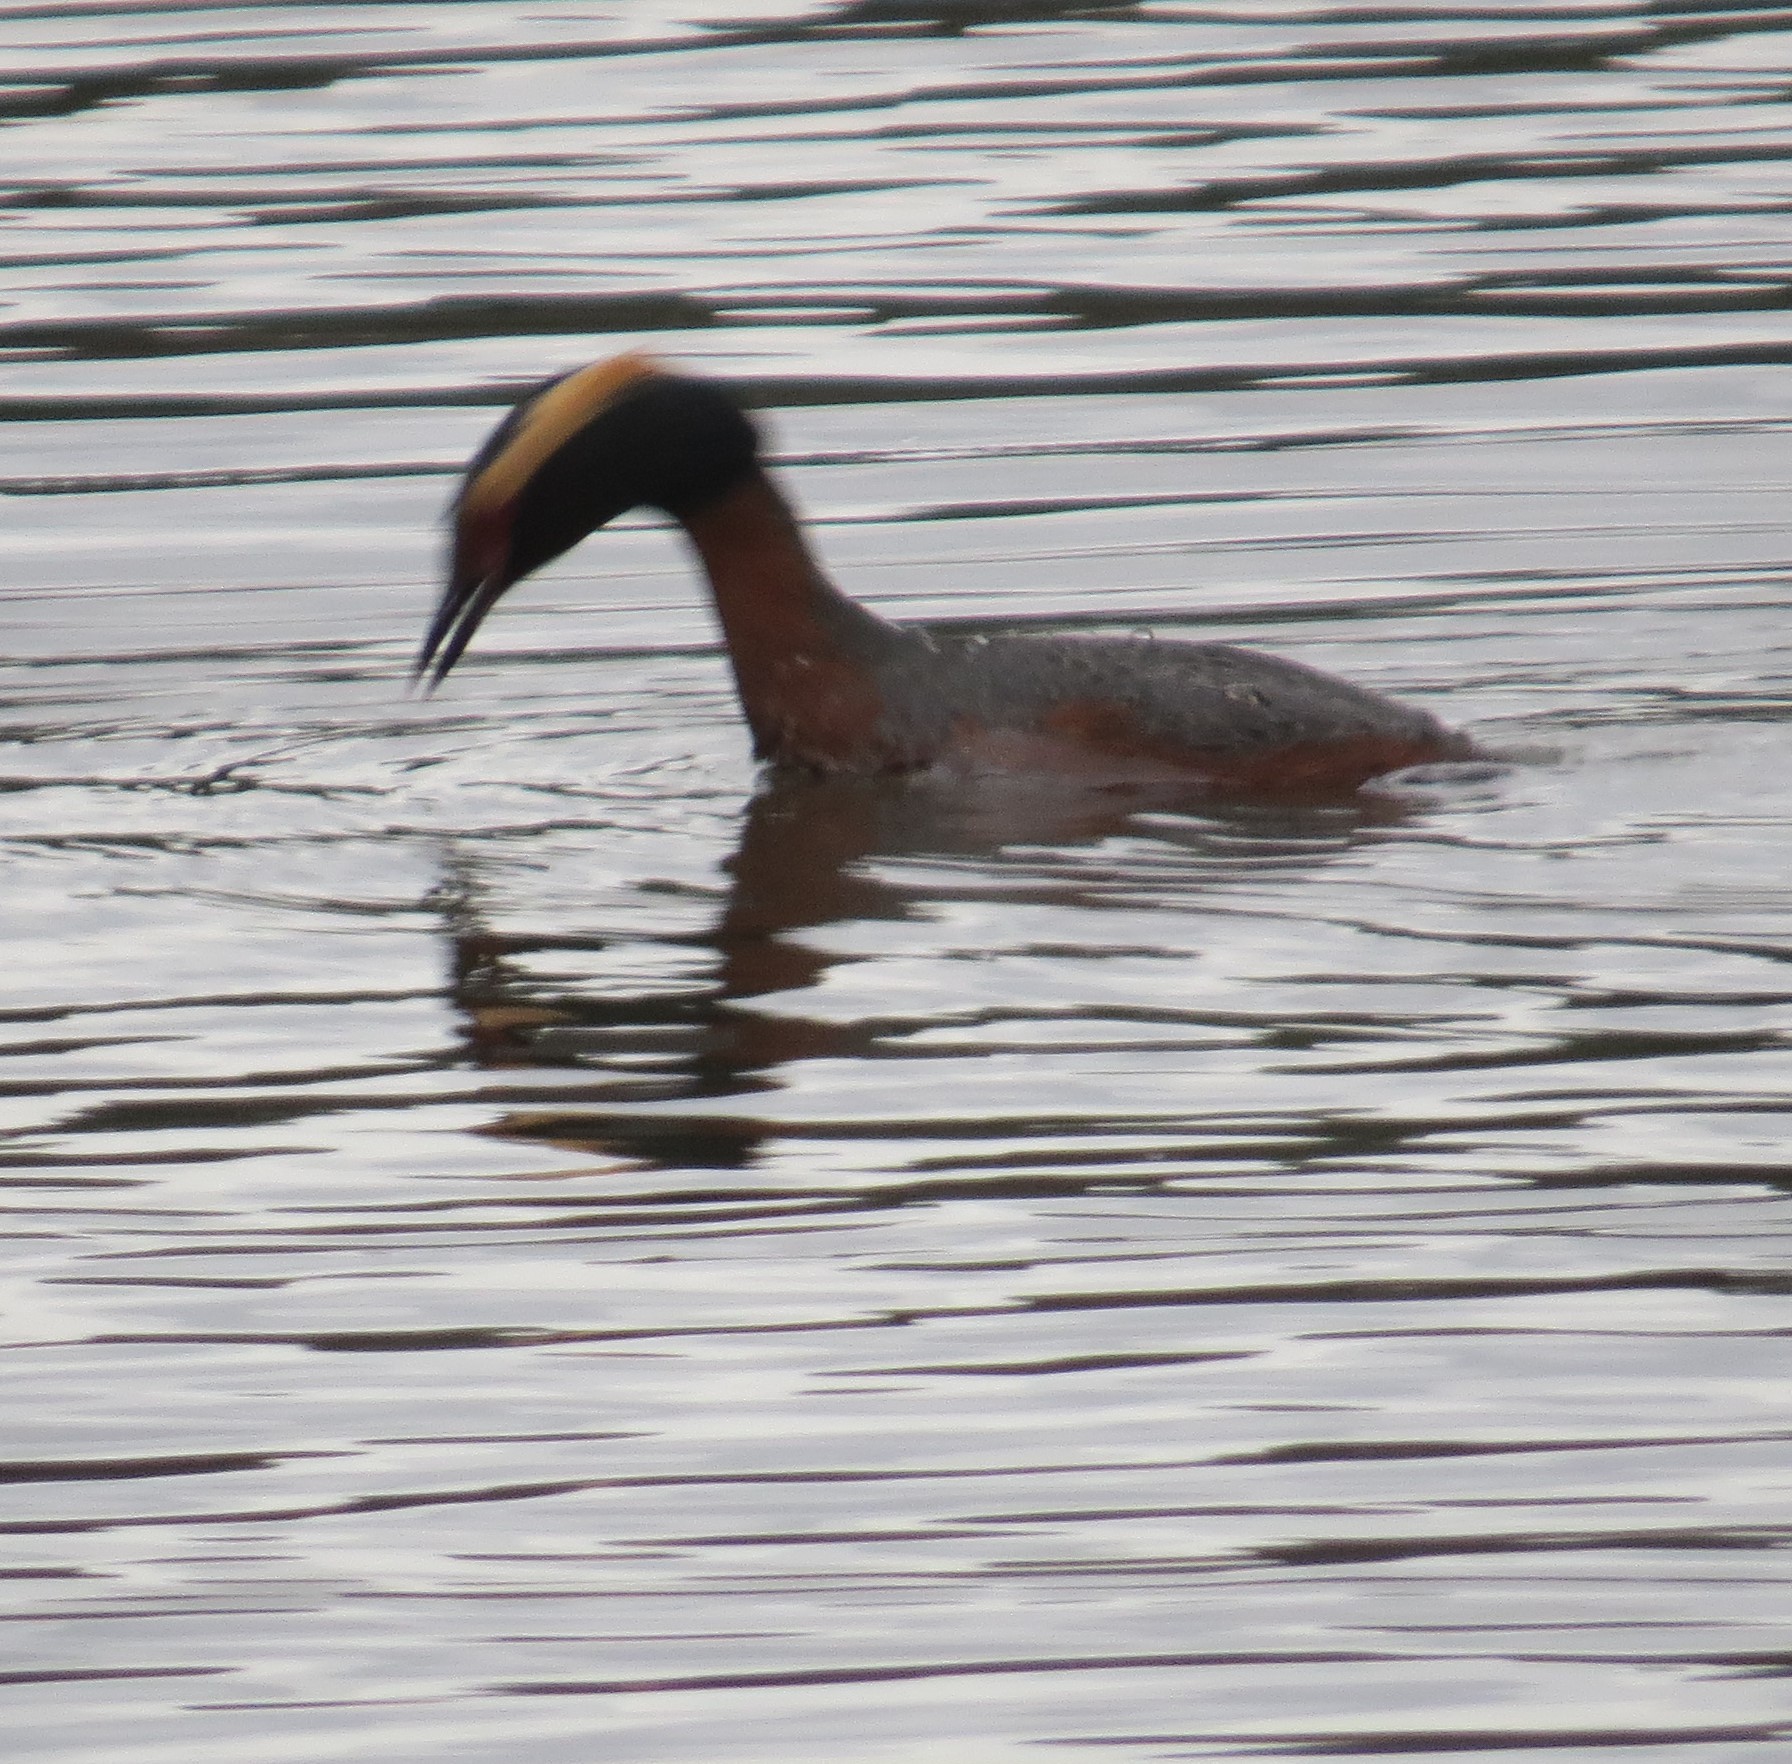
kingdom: Animalia
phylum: Chordata
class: Aves
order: Podicipediformes
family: Podicipedidae
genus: Podiceps
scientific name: Podiceps auritus
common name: Horned grebe
